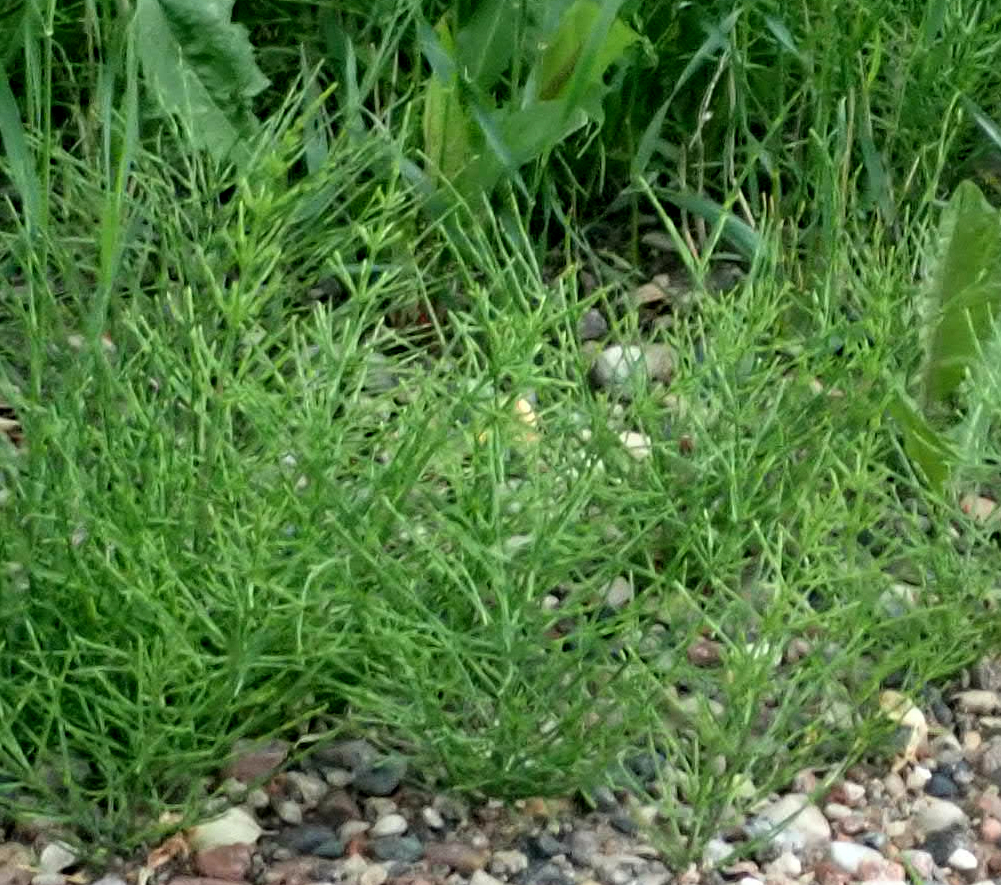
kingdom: Plantae
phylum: Tracheophyta
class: Polypodiopsida
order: Equisetales
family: Equisetaceae
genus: Equisetum
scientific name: Equisetum arvense
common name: Field horsetail
